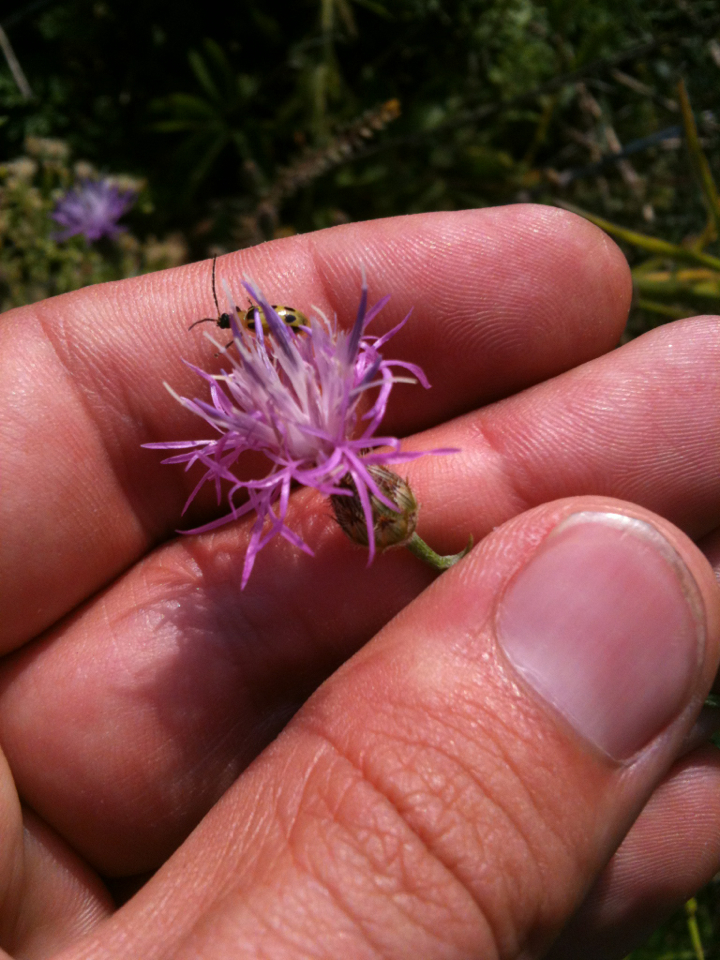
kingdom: Plantae
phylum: Tracheophyta
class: Magnoliopsida
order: Asterales
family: Asteraceae
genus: Centaurea
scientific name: Centaurea australis
